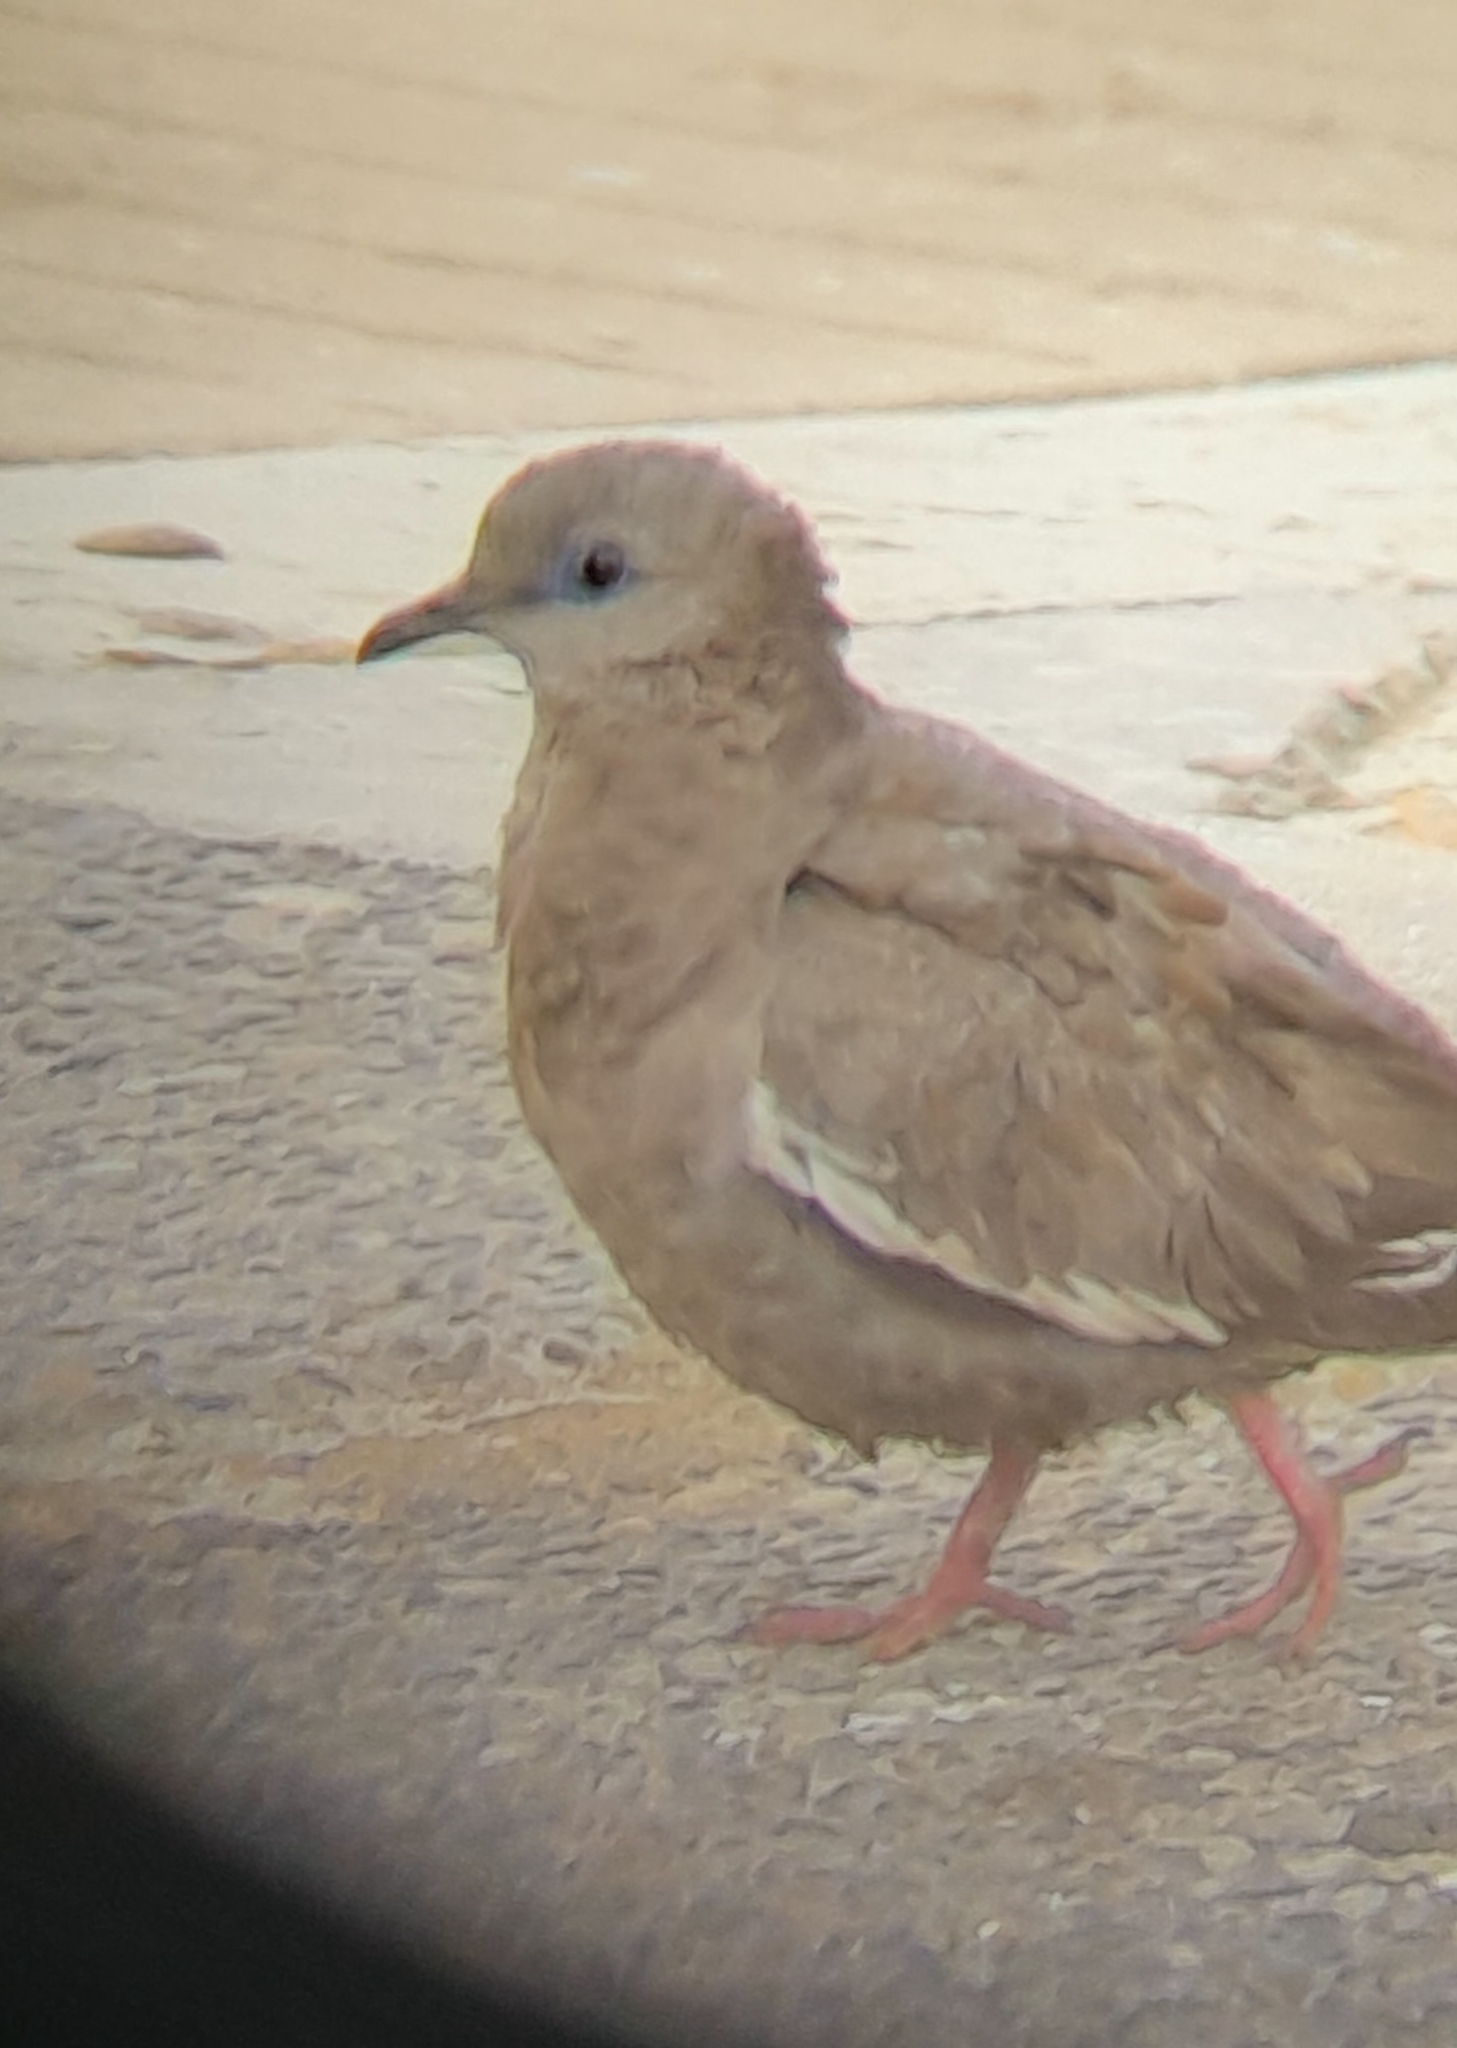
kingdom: Animalia
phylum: Chordata
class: Aves
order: Columbiformes
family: Columbidae
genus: Zenaida
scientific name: Zenaida meloda
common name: West peruvian dove
